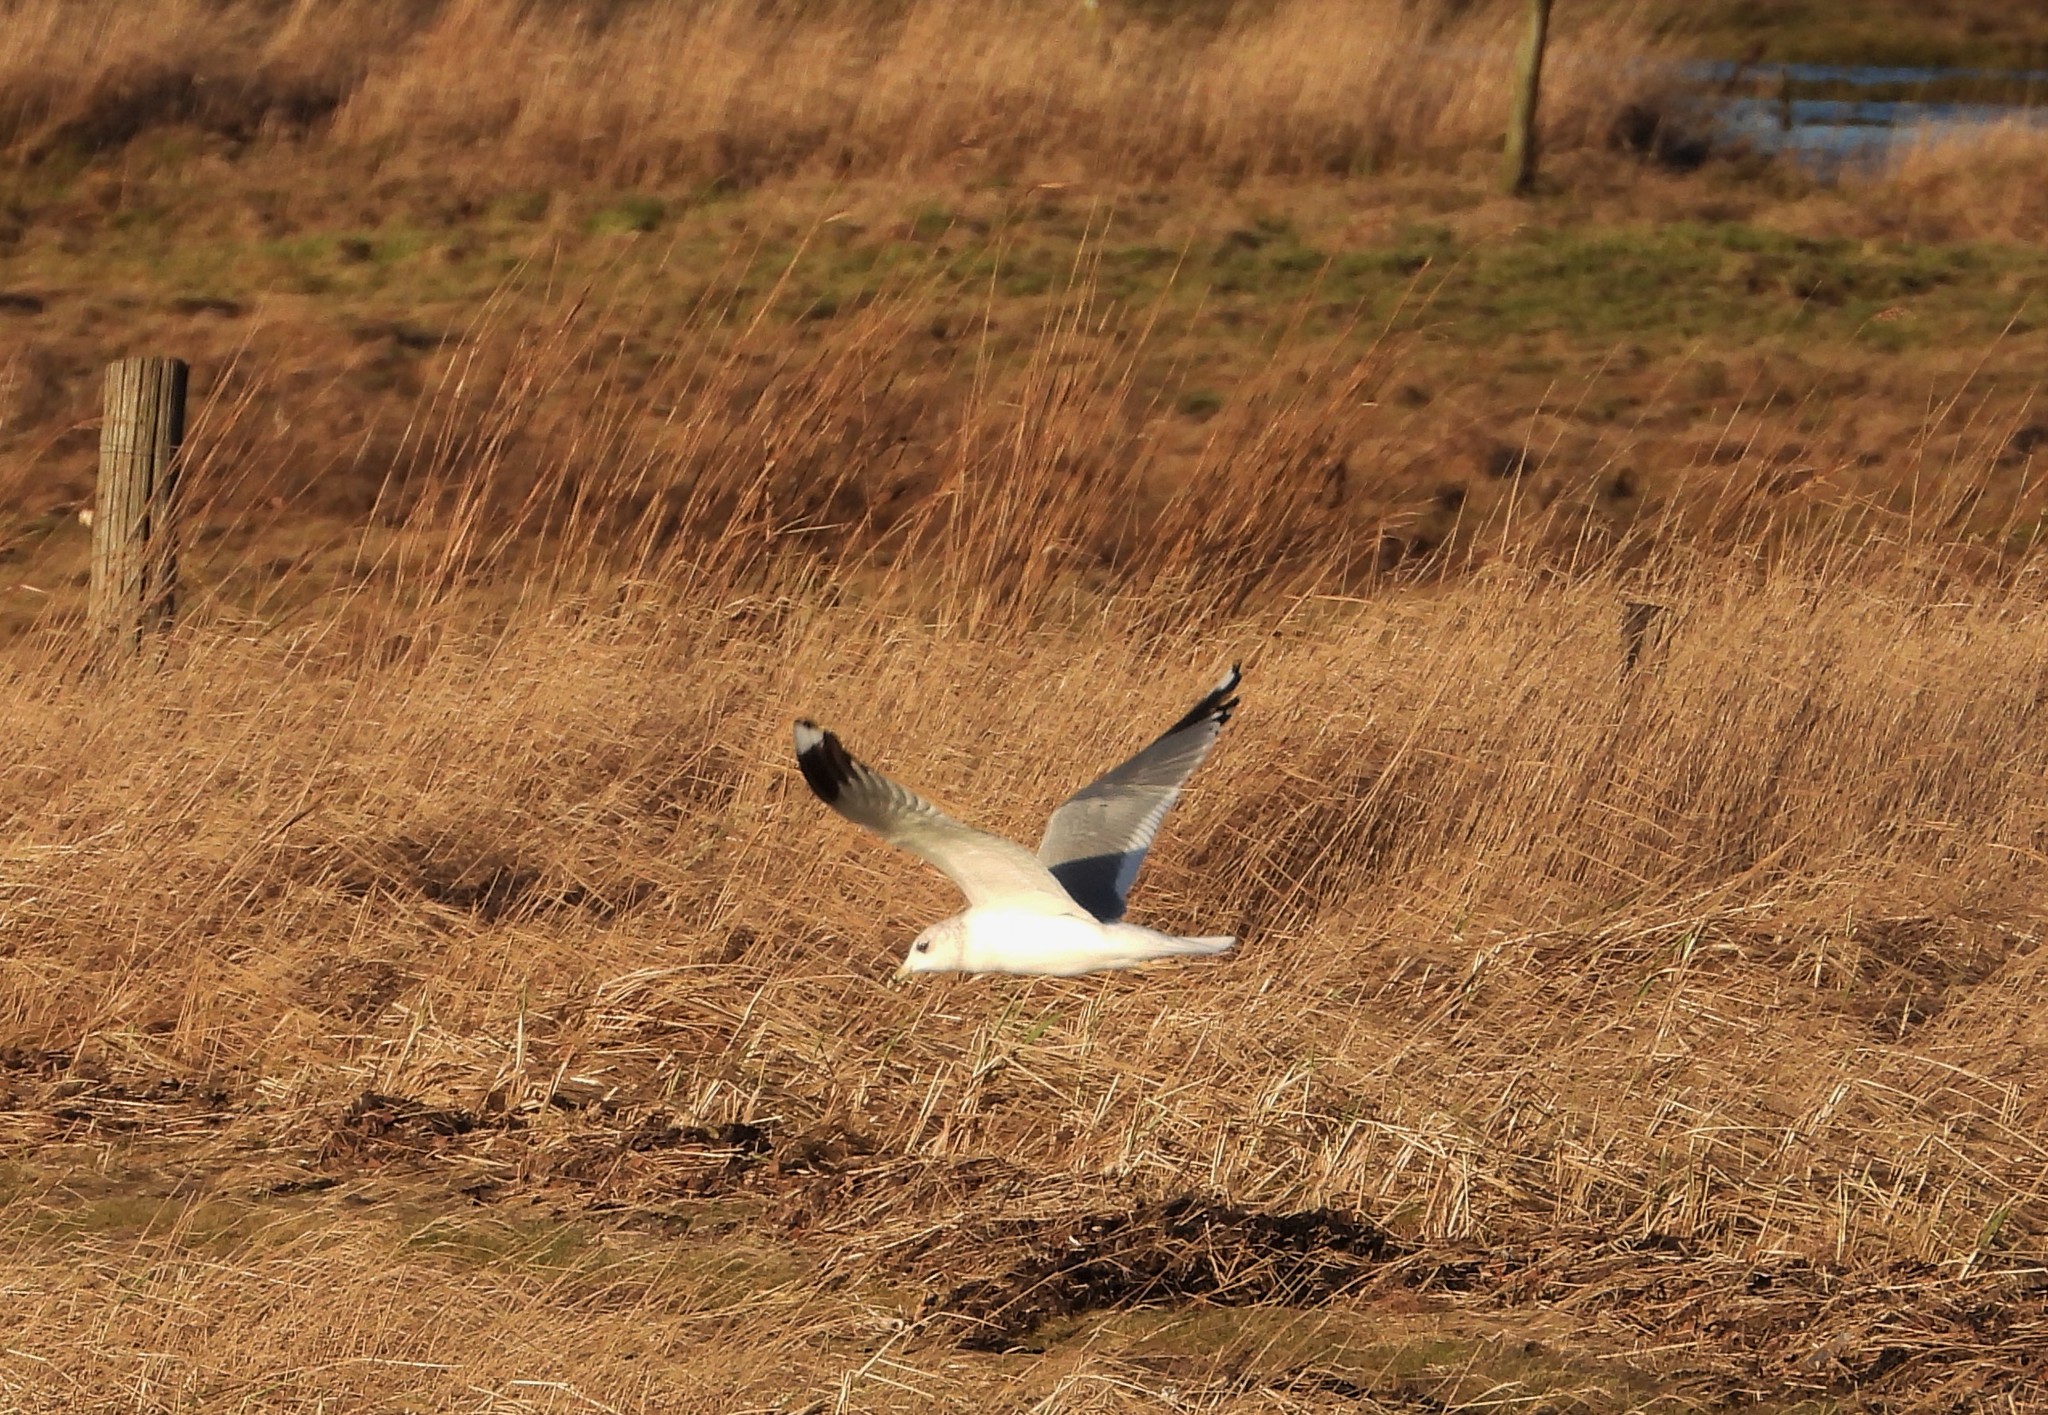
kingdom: Animalia
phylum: Chordata
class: Aves
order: Charadriiformes
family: Laridae
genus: Larus
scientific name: Larus canus
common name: Mew gull
